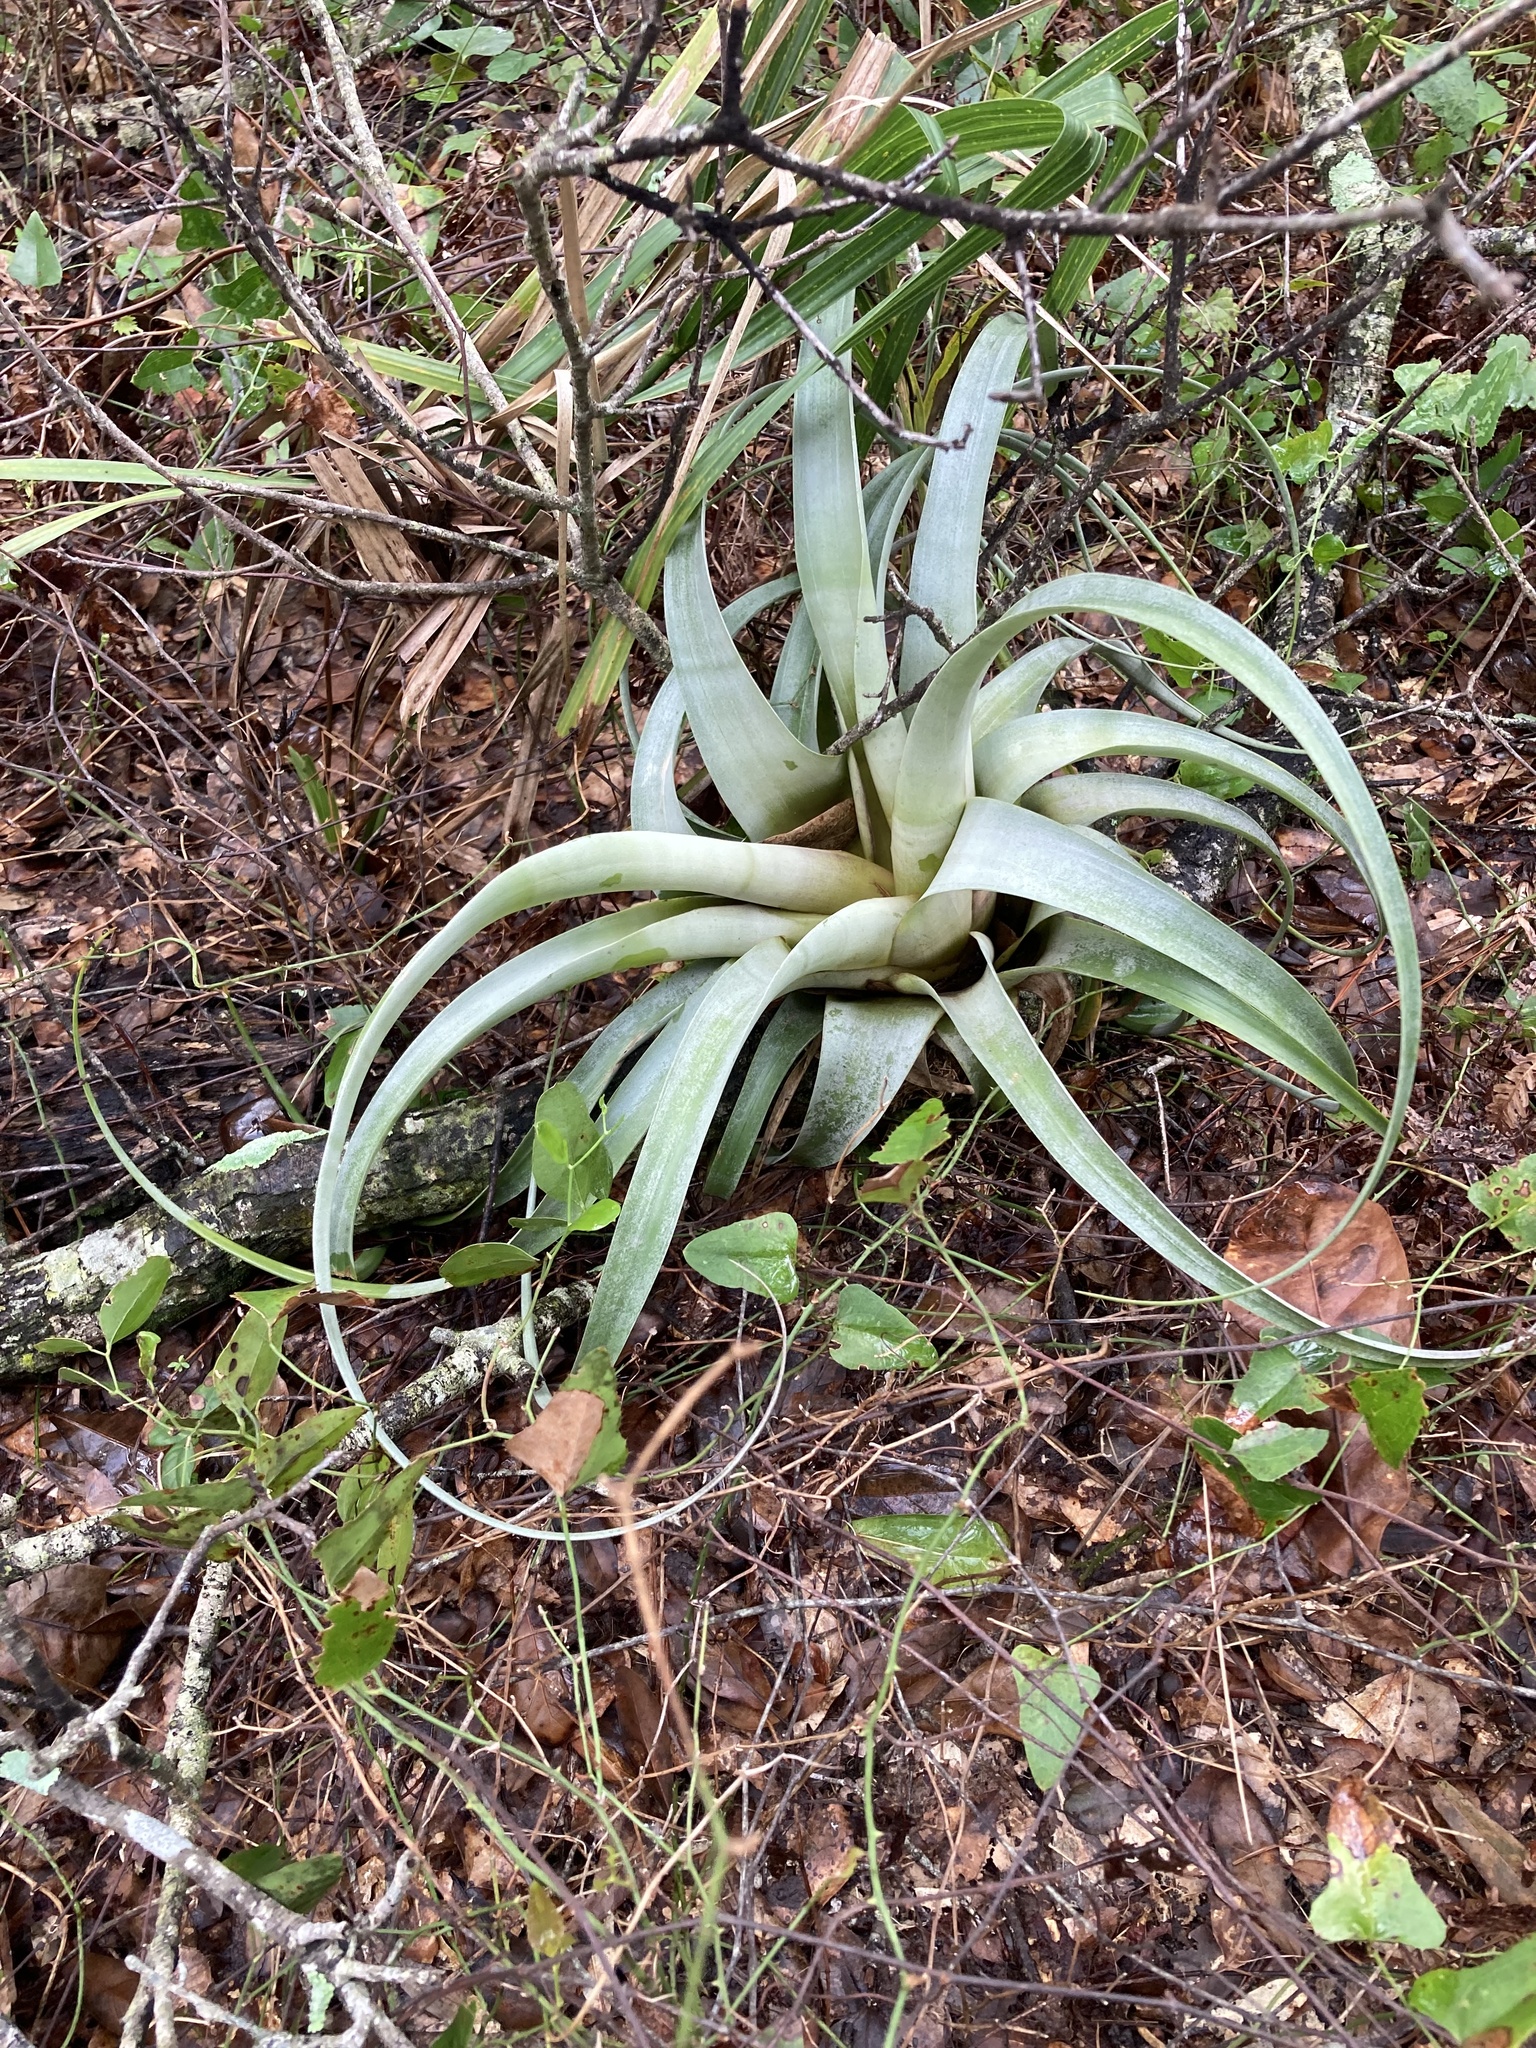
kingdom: Plantae
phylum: Tracheophyta
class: Liliopsida
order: Poales
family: Bromeliaceae
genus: Tillandsia
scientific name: Tillandsia utriculata
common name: Wild pine
